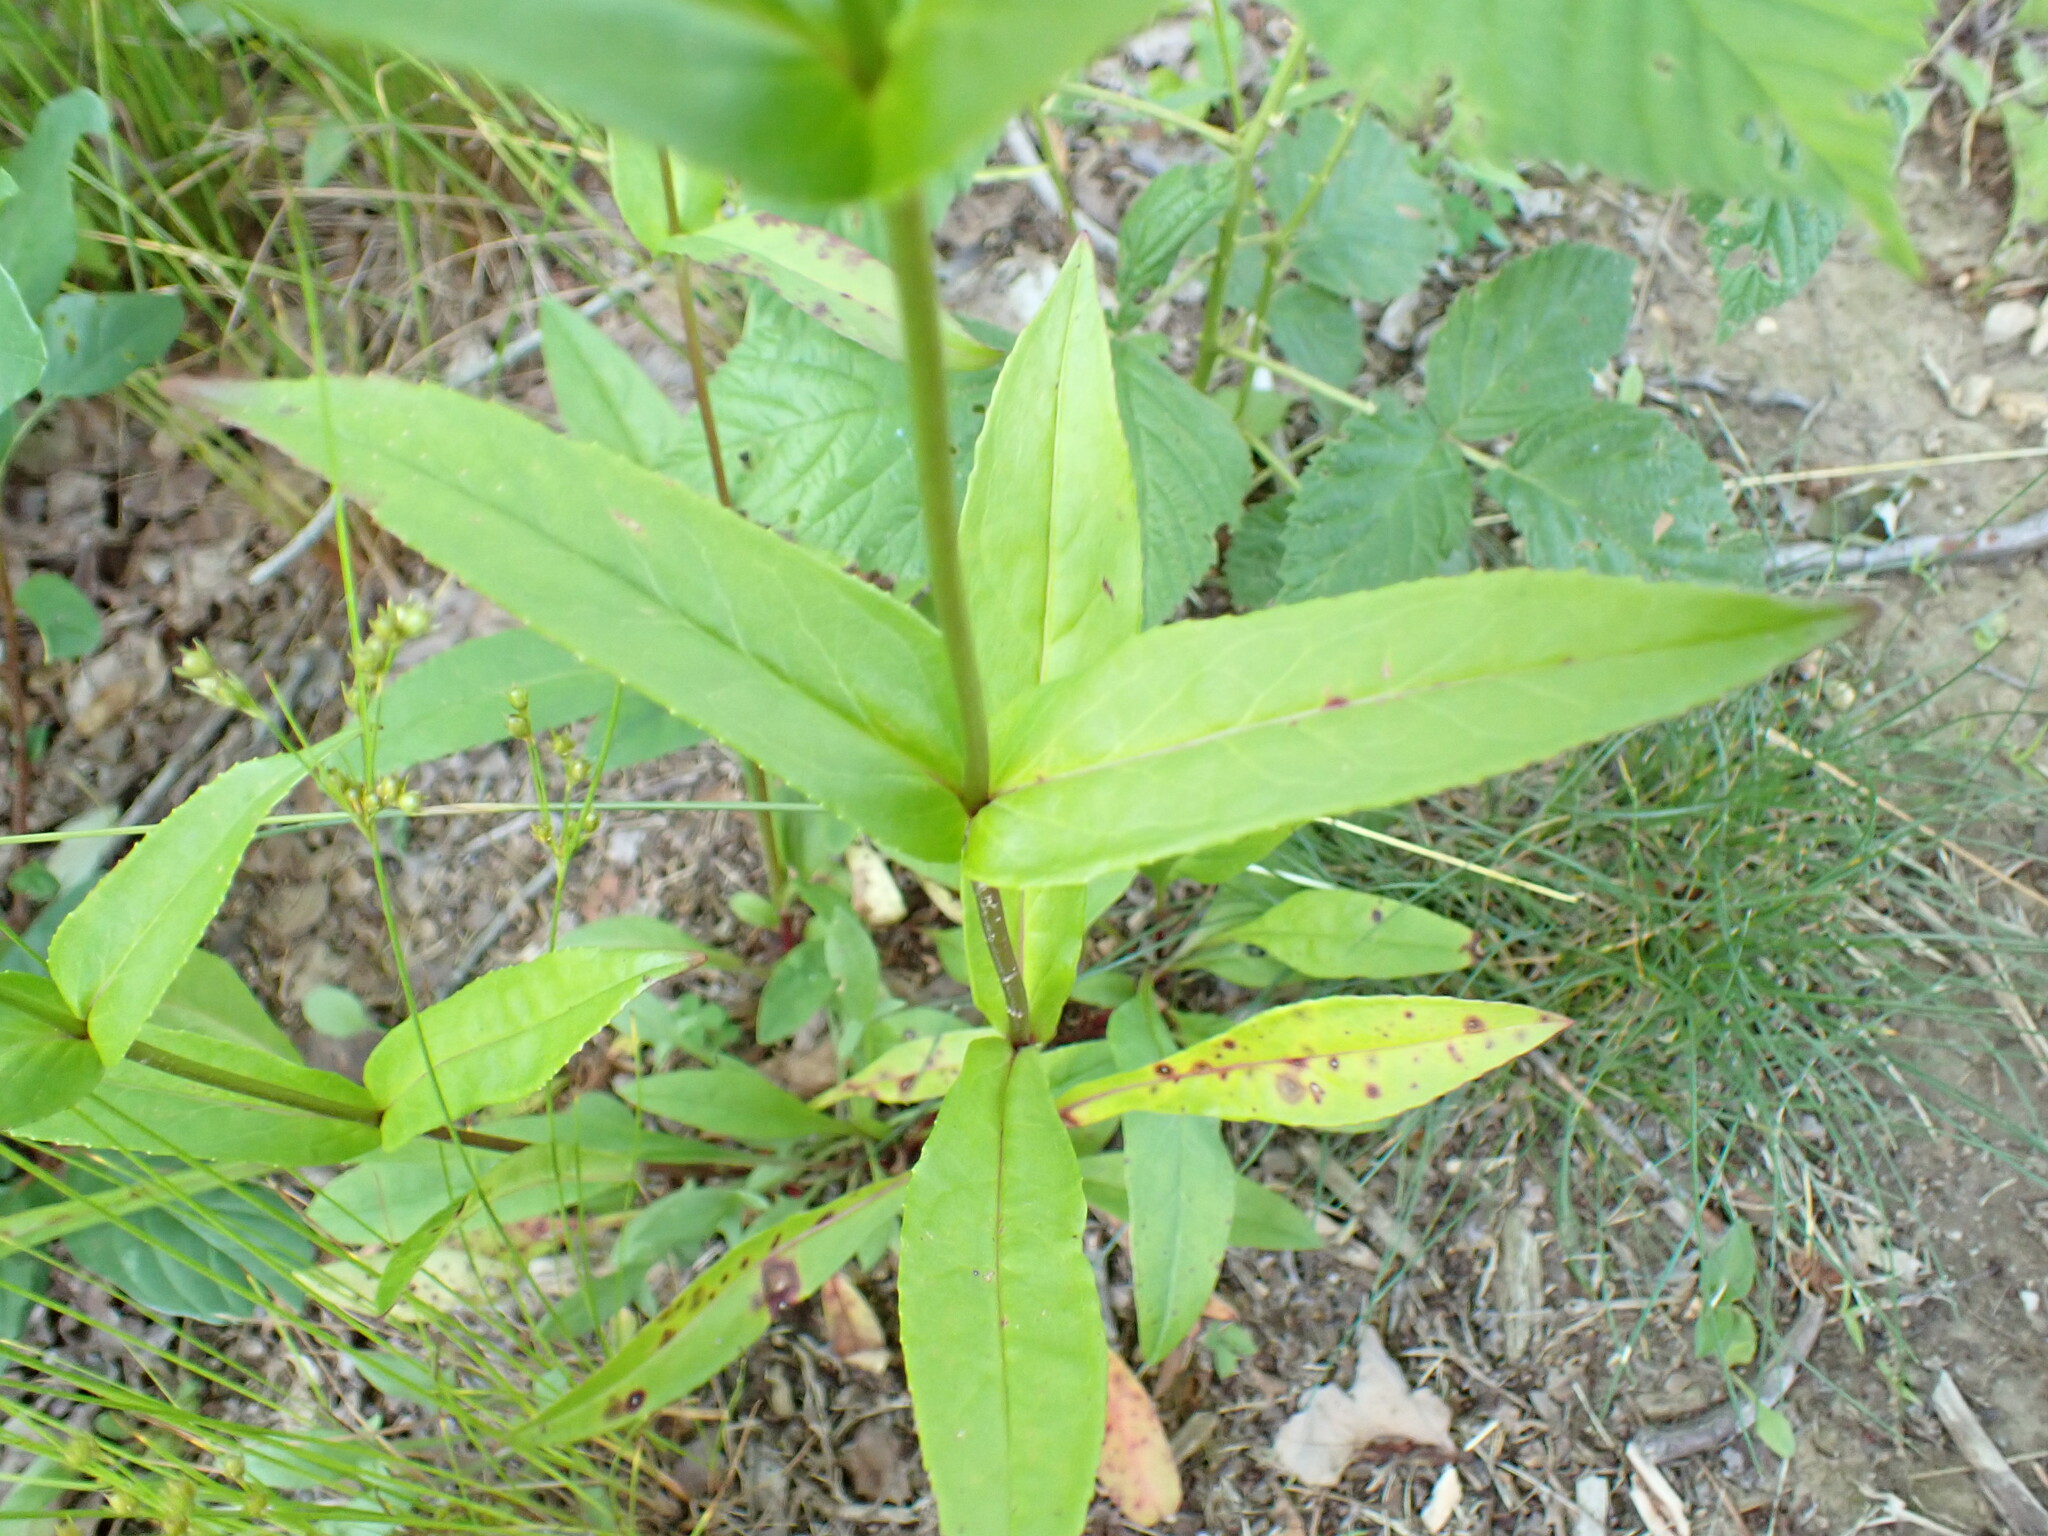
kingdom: Plantae
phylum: Tracheophyta
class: Magnoliopsida
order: Lamiales
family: Plantaginaceae
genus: Penstemon
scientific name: Penstemon digitalis
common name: Foxglove beardtongue
